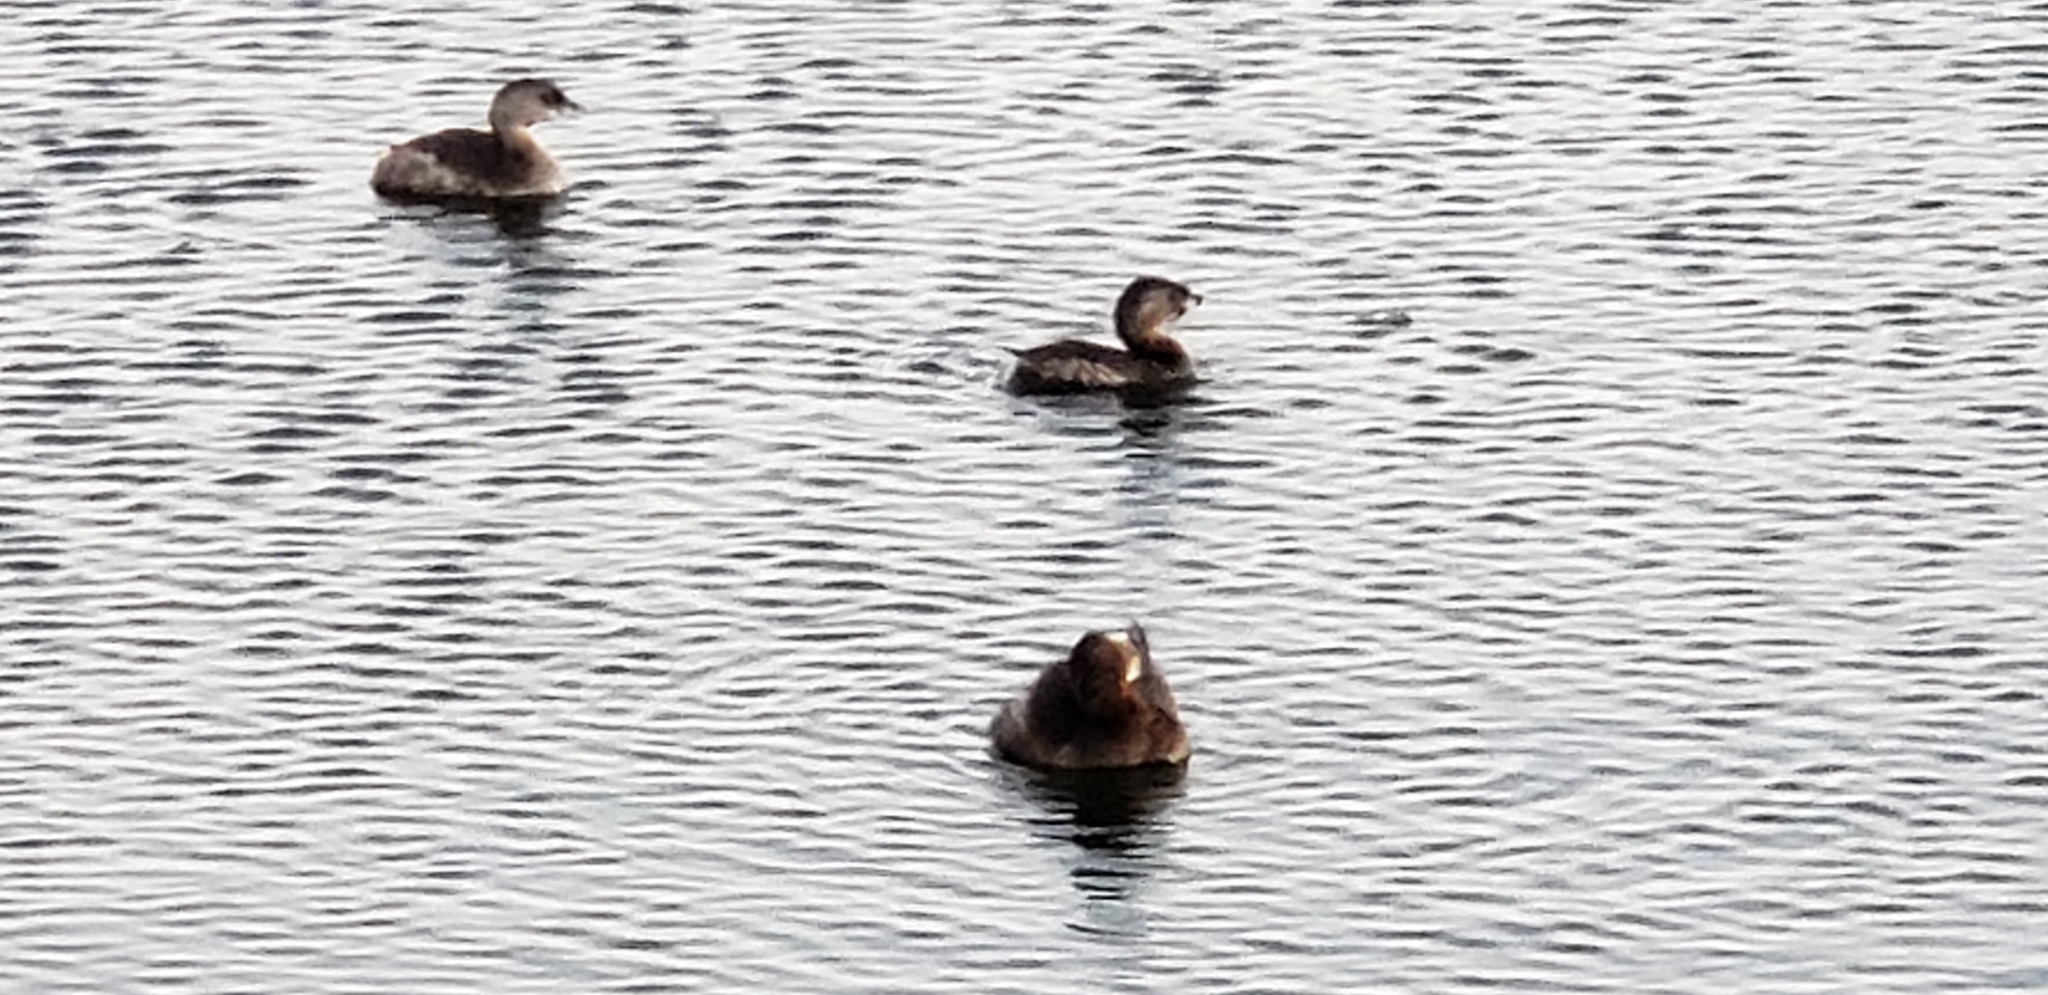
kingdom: Animalia
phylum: Chordata
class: Aves
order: Podicipediformes
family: Podicipedidae
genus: Podilymbus
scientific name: Podilymbus podiceps
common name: Pied-billed grebe
